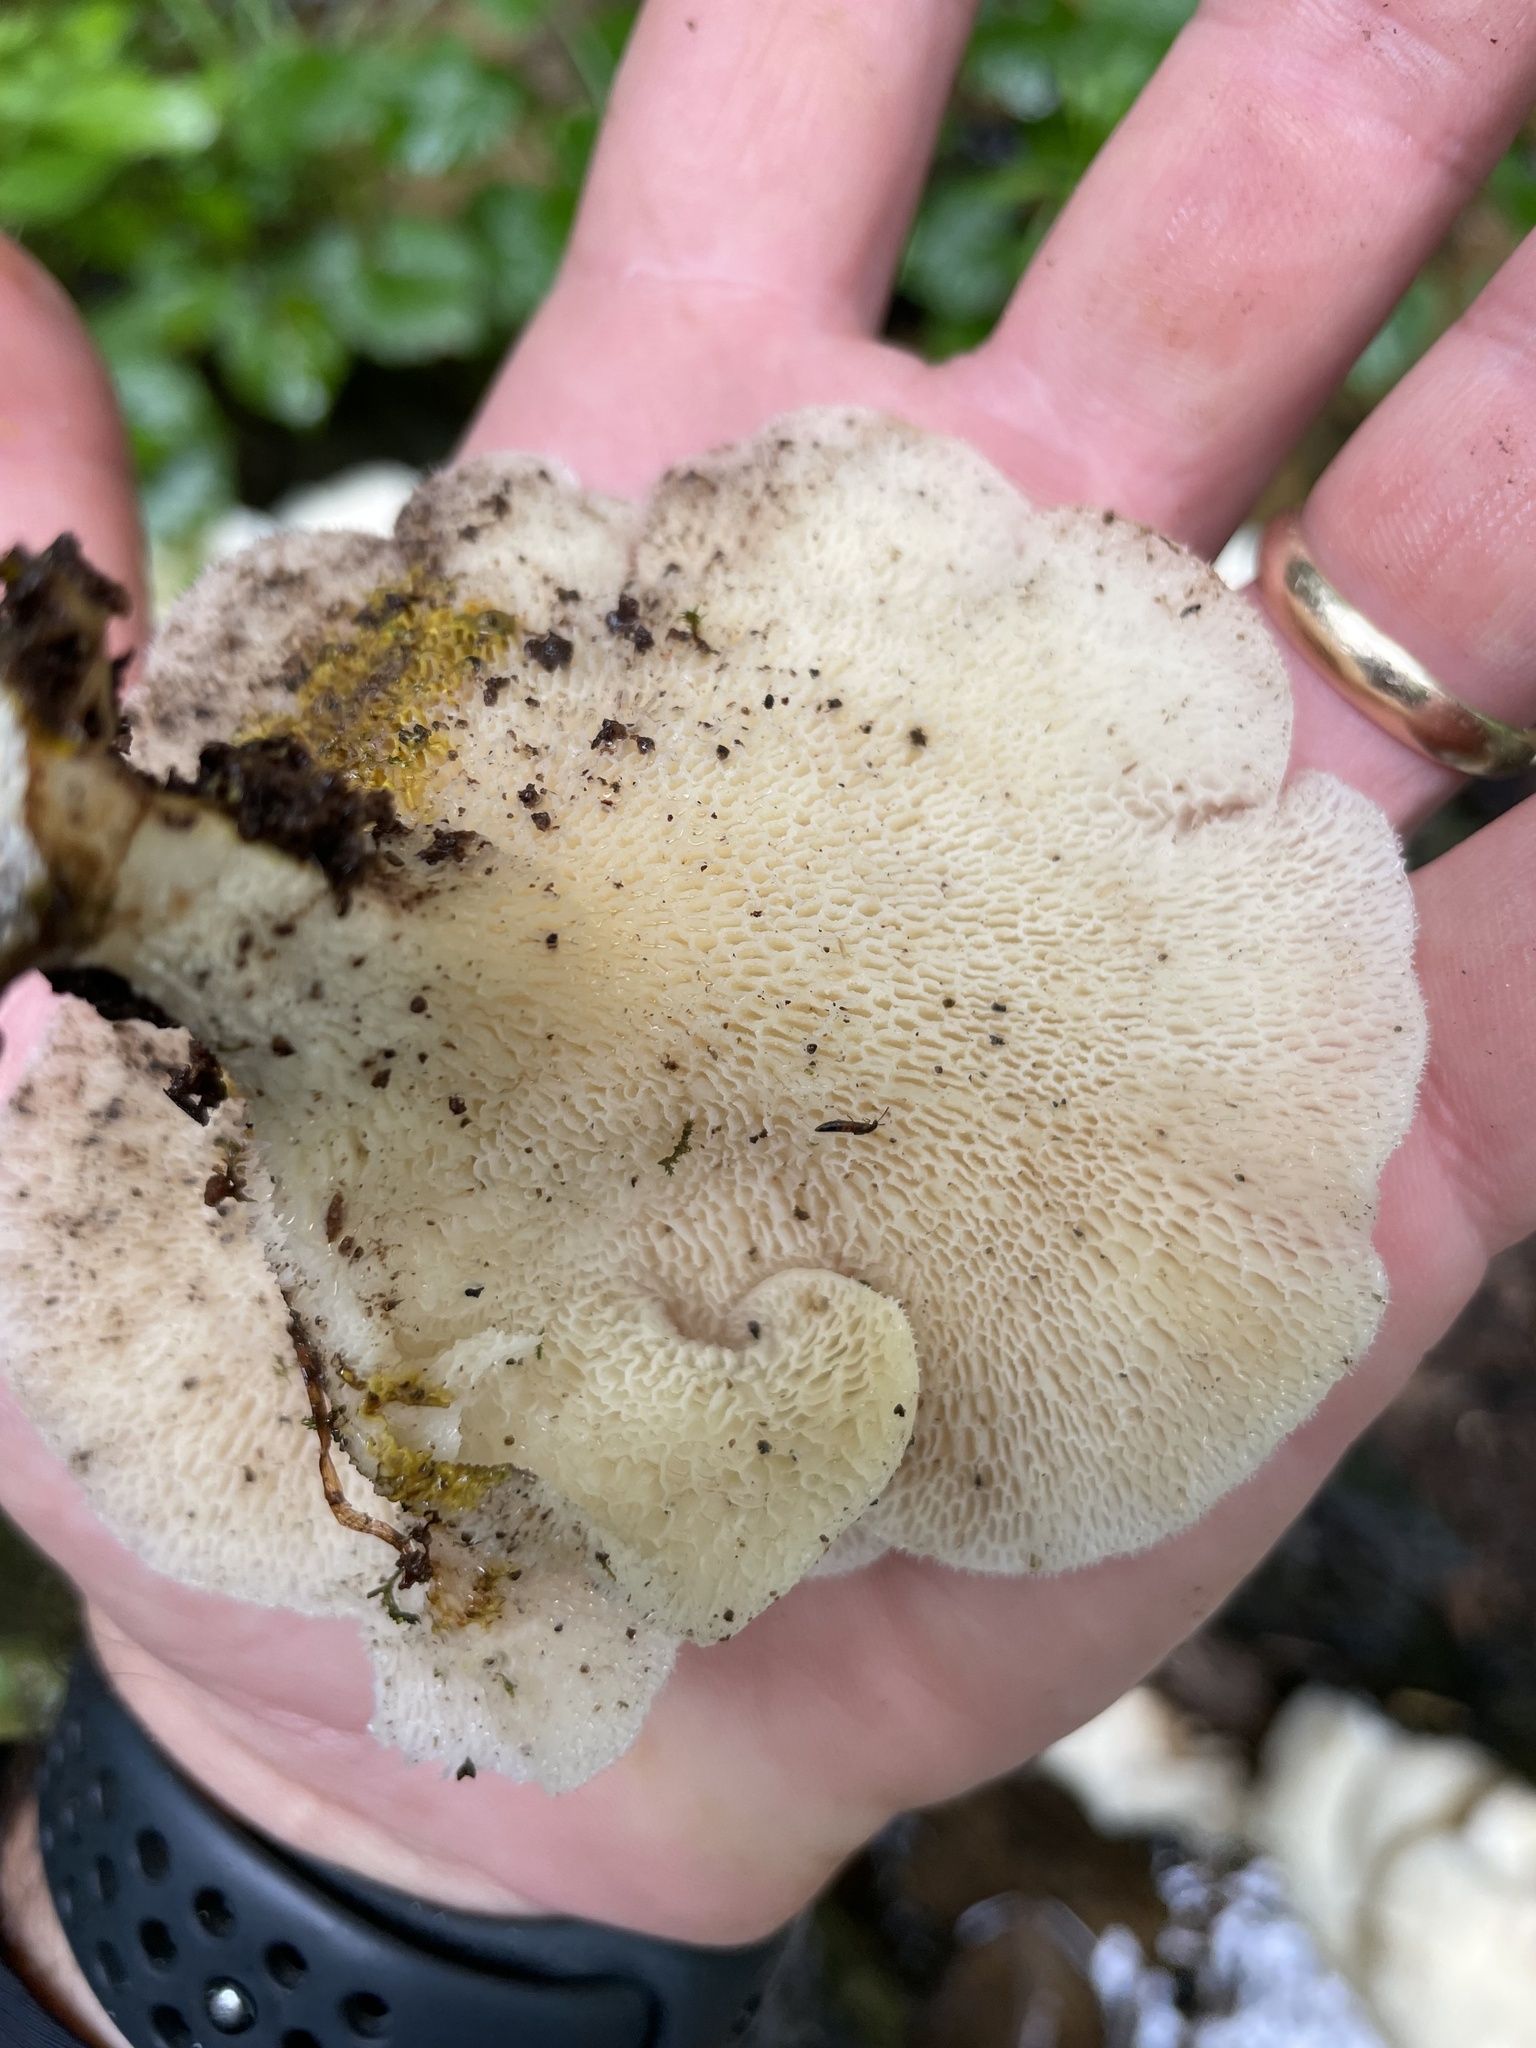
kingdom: Fungi
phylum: Basidiomycota
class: Agaricomycetes
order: Polyporales
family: Polyporaceae
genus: Favolus
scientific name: Favolus tenuiculus
